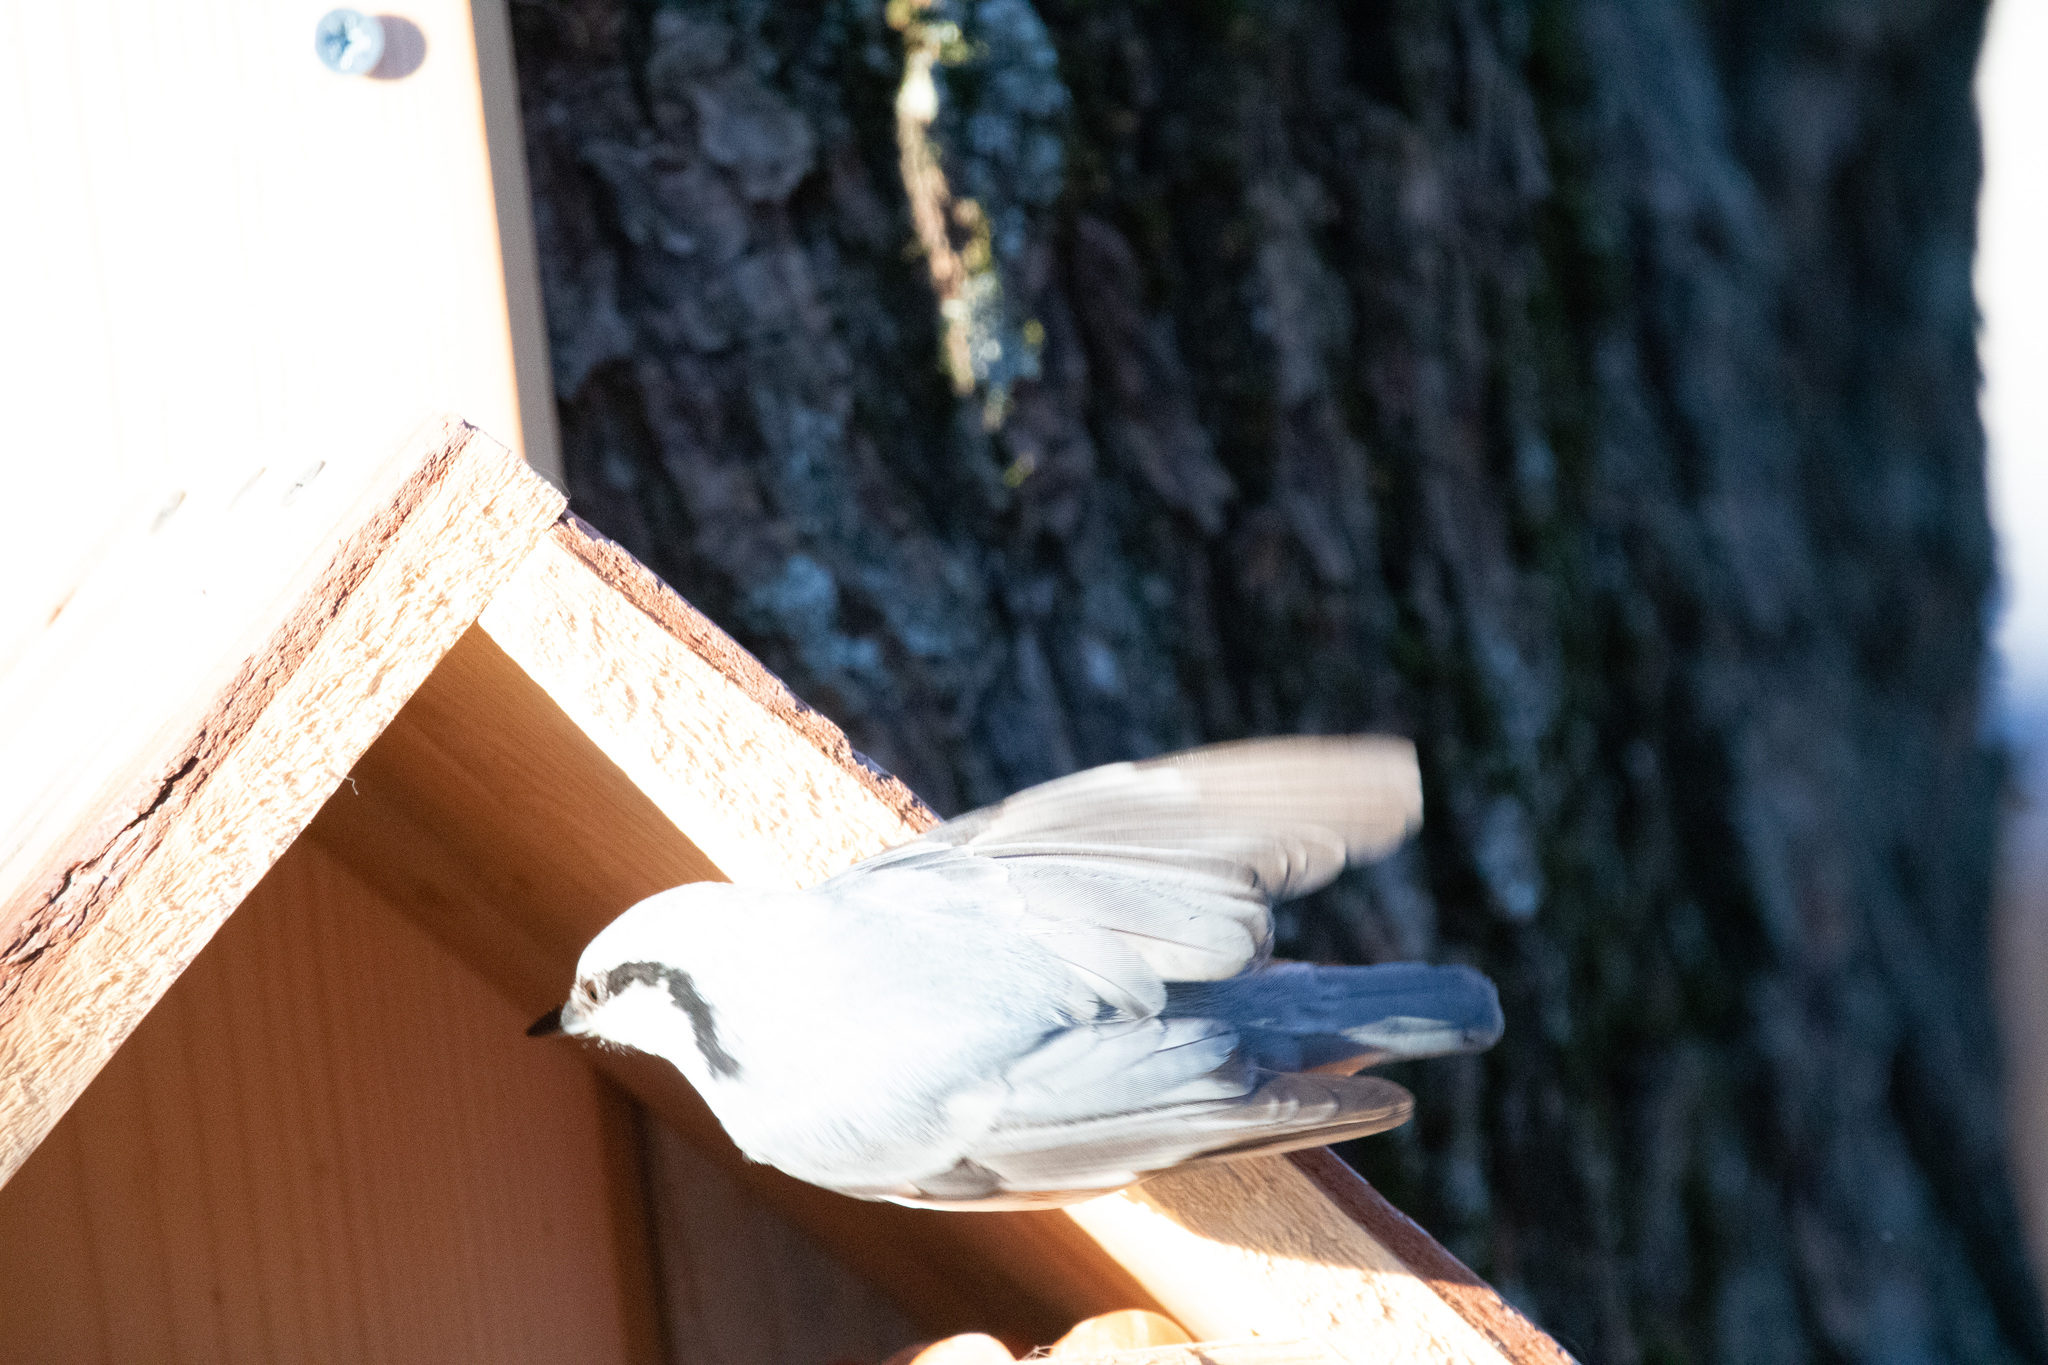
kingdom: Animalia
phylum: Chordata
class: Aves
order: Passeriformes
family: Sittidae
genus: Sitta
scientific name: Sitta europaea
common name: Eurasian nuthatch
